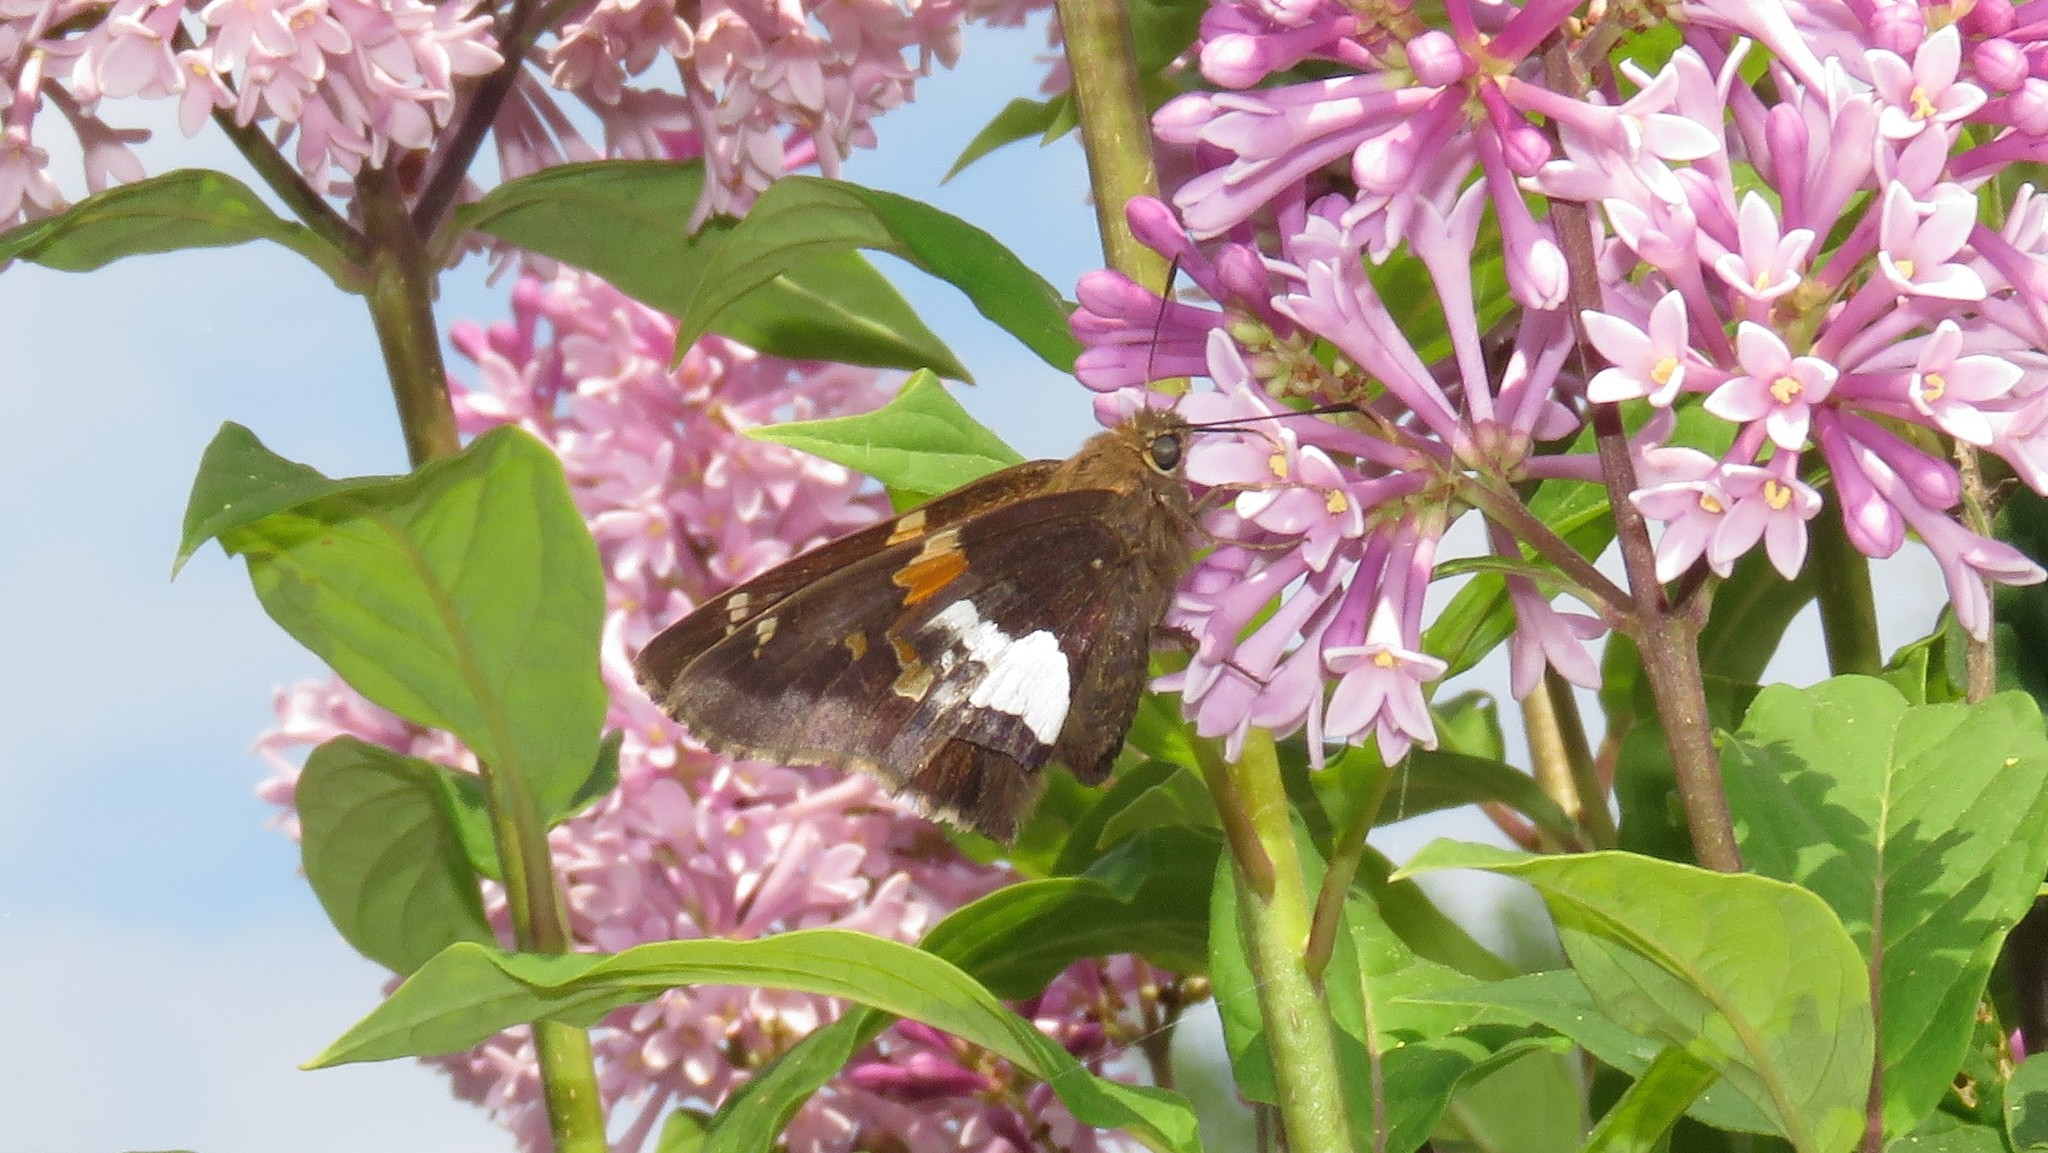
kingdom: Animalia
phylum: Arthropoda
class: Insecta
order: Lepidoptera
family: Hesperiidae
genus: Epargyreus
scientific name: Epargyreus clarus
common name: Silver-spotted skipper
